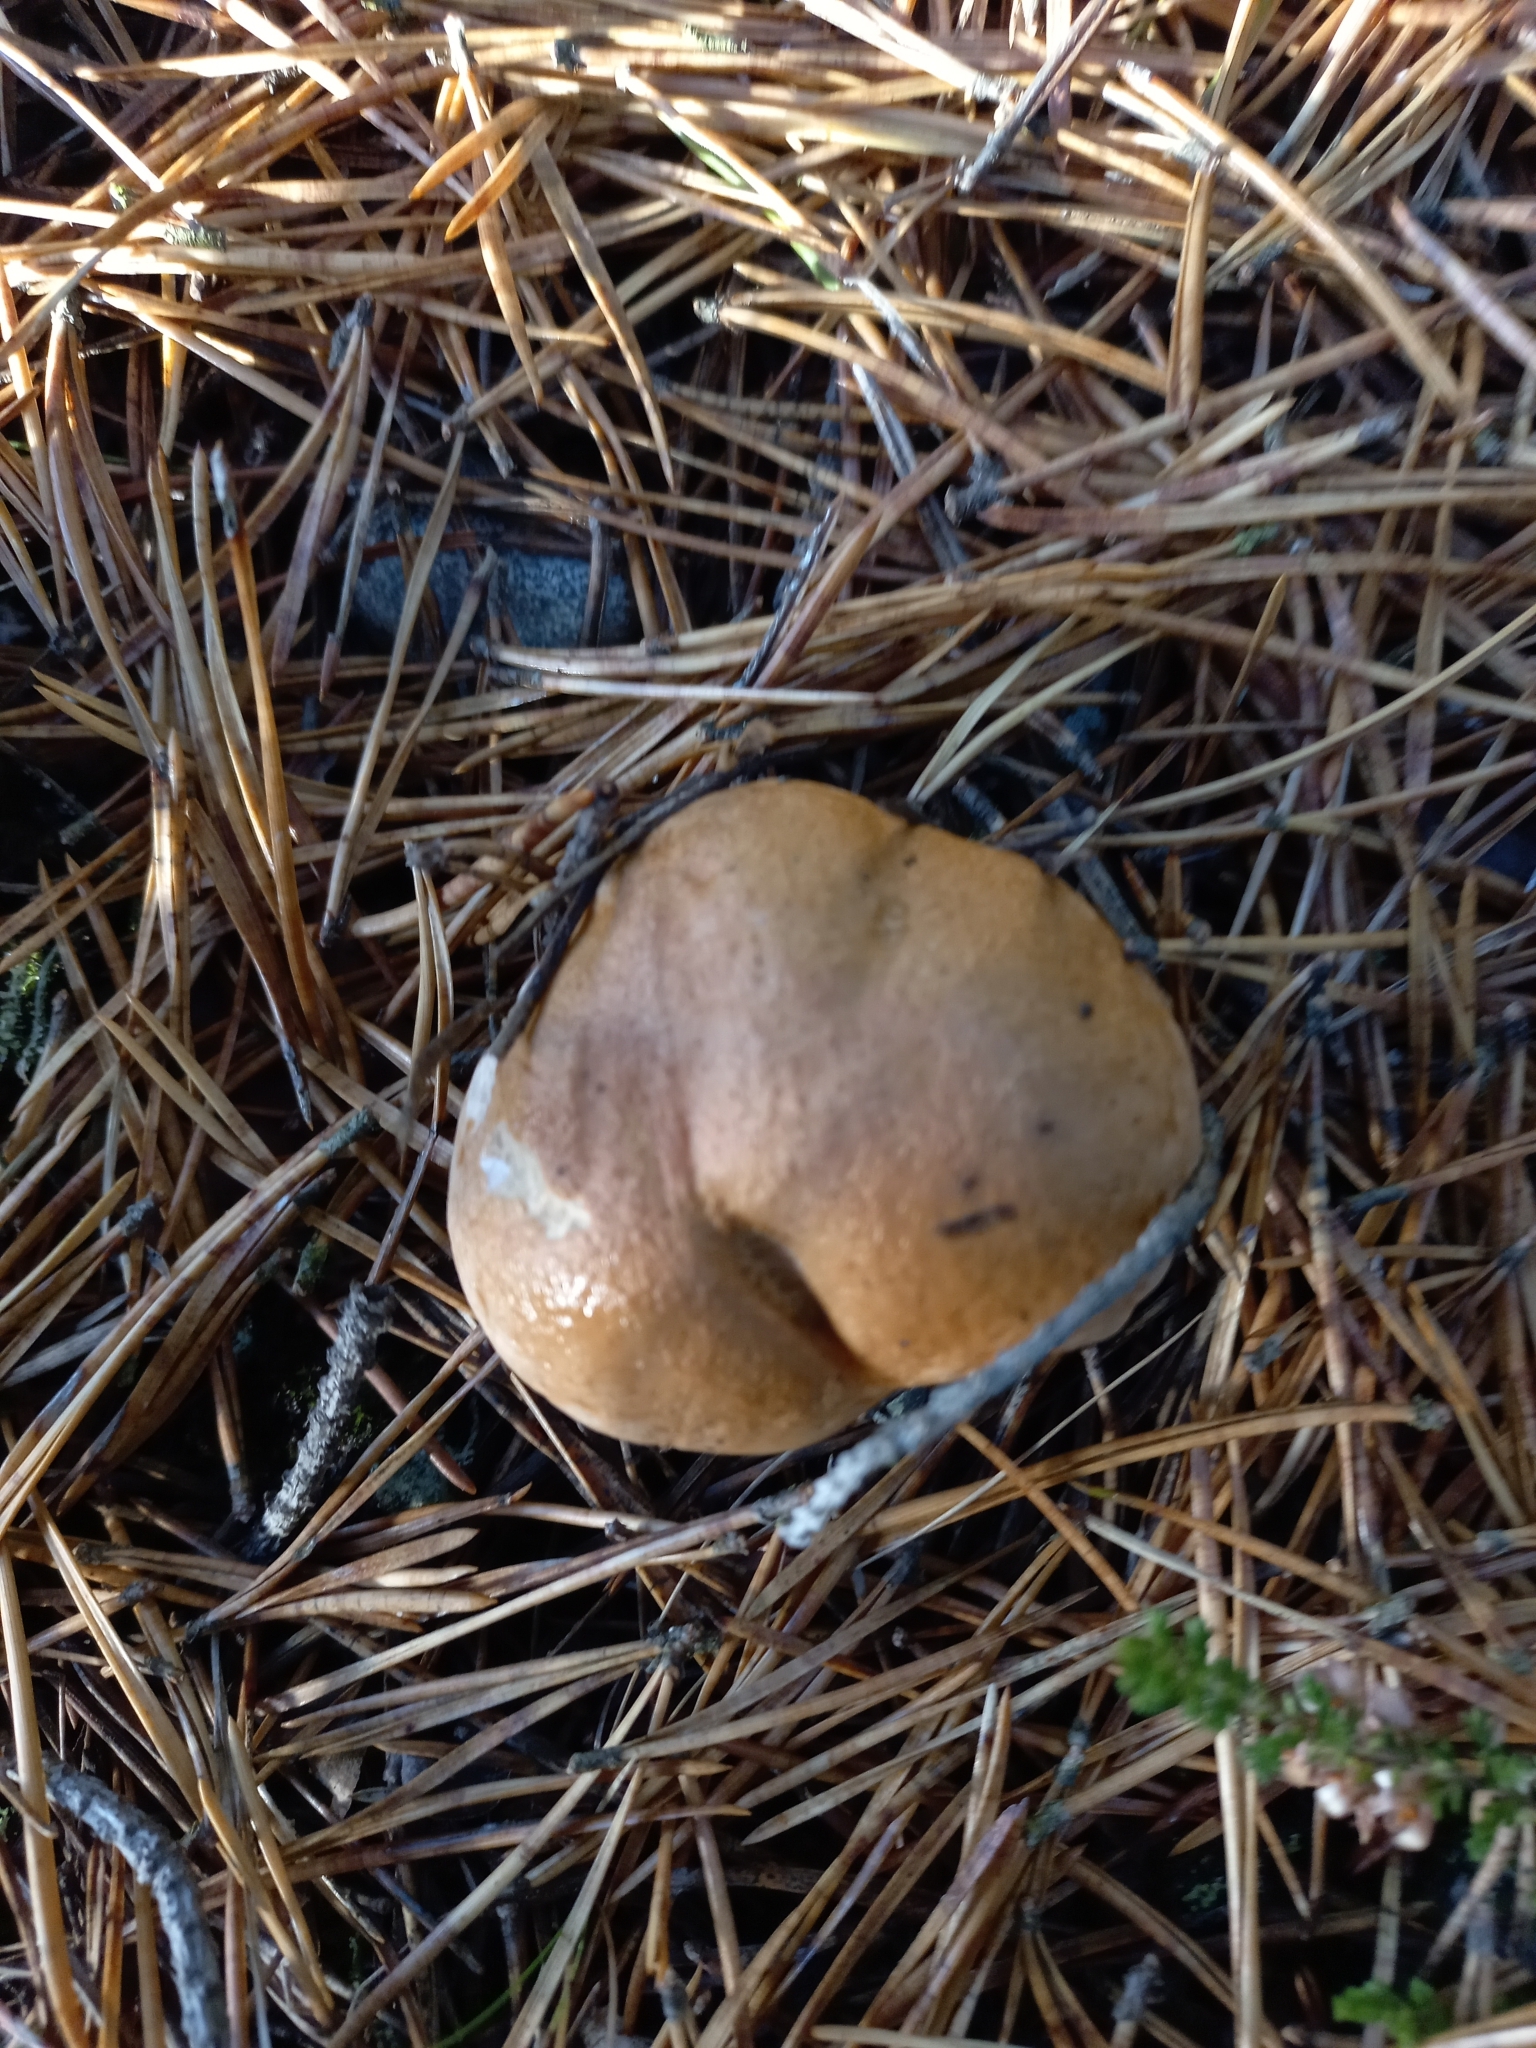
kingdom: Fungi
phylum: Basidiomycota
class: Agaricomycetes
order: Boletales
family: Suillaceae
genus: Suillus
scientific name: Suillus bovinus
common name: Bovine bolete
